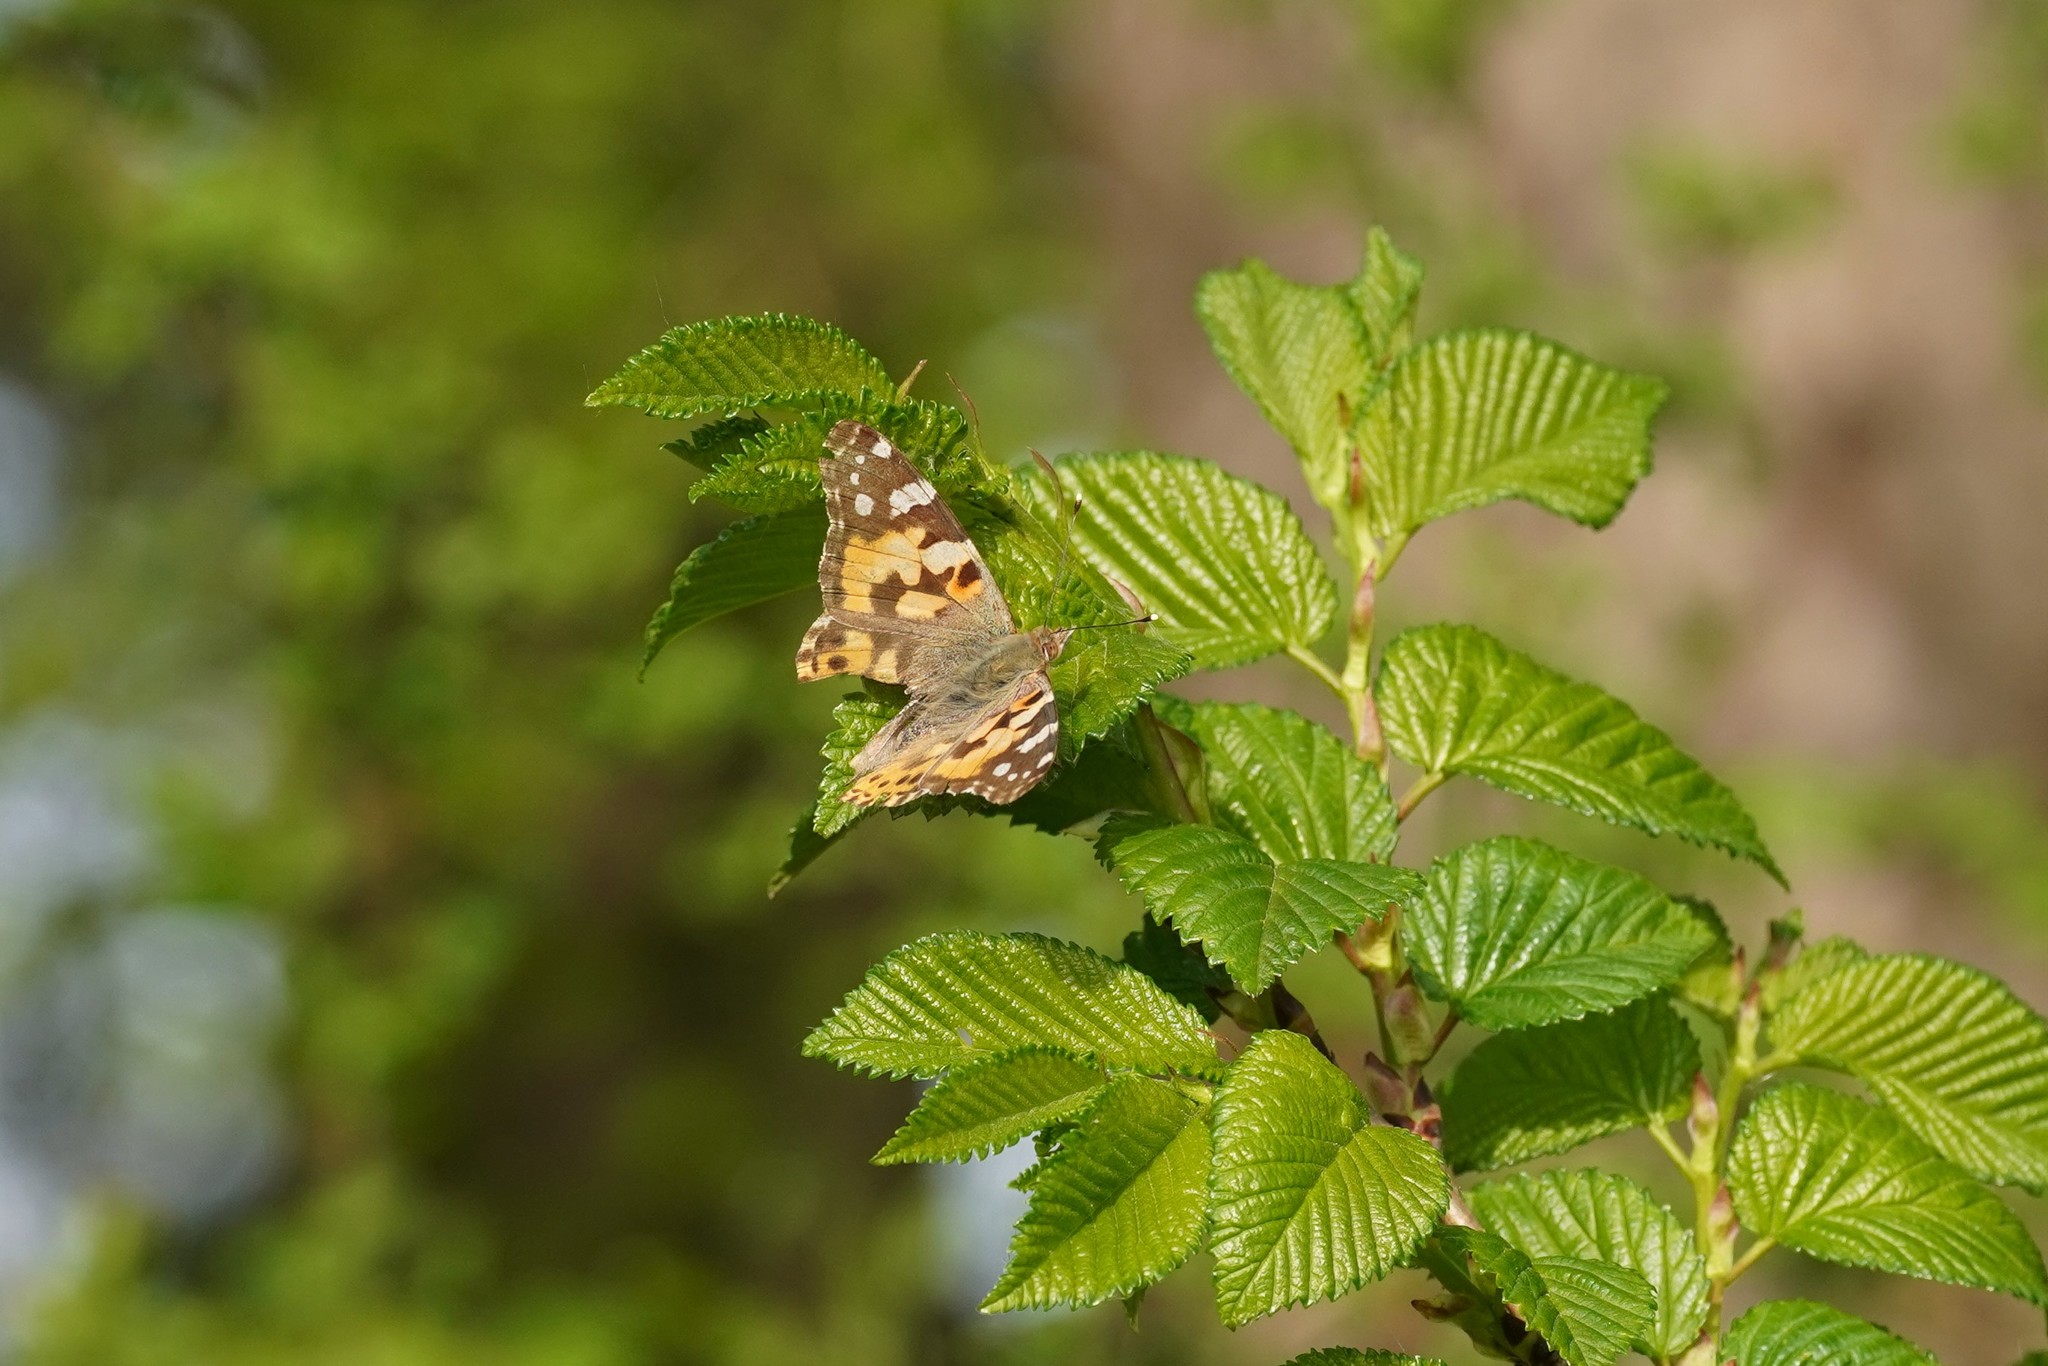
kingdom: Animalia
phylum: Arthropoda
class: Insecta
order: Lepidoptera
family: Nymphalidae
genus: Vanessa
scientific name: Vanessa cardui
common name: Painted lady
